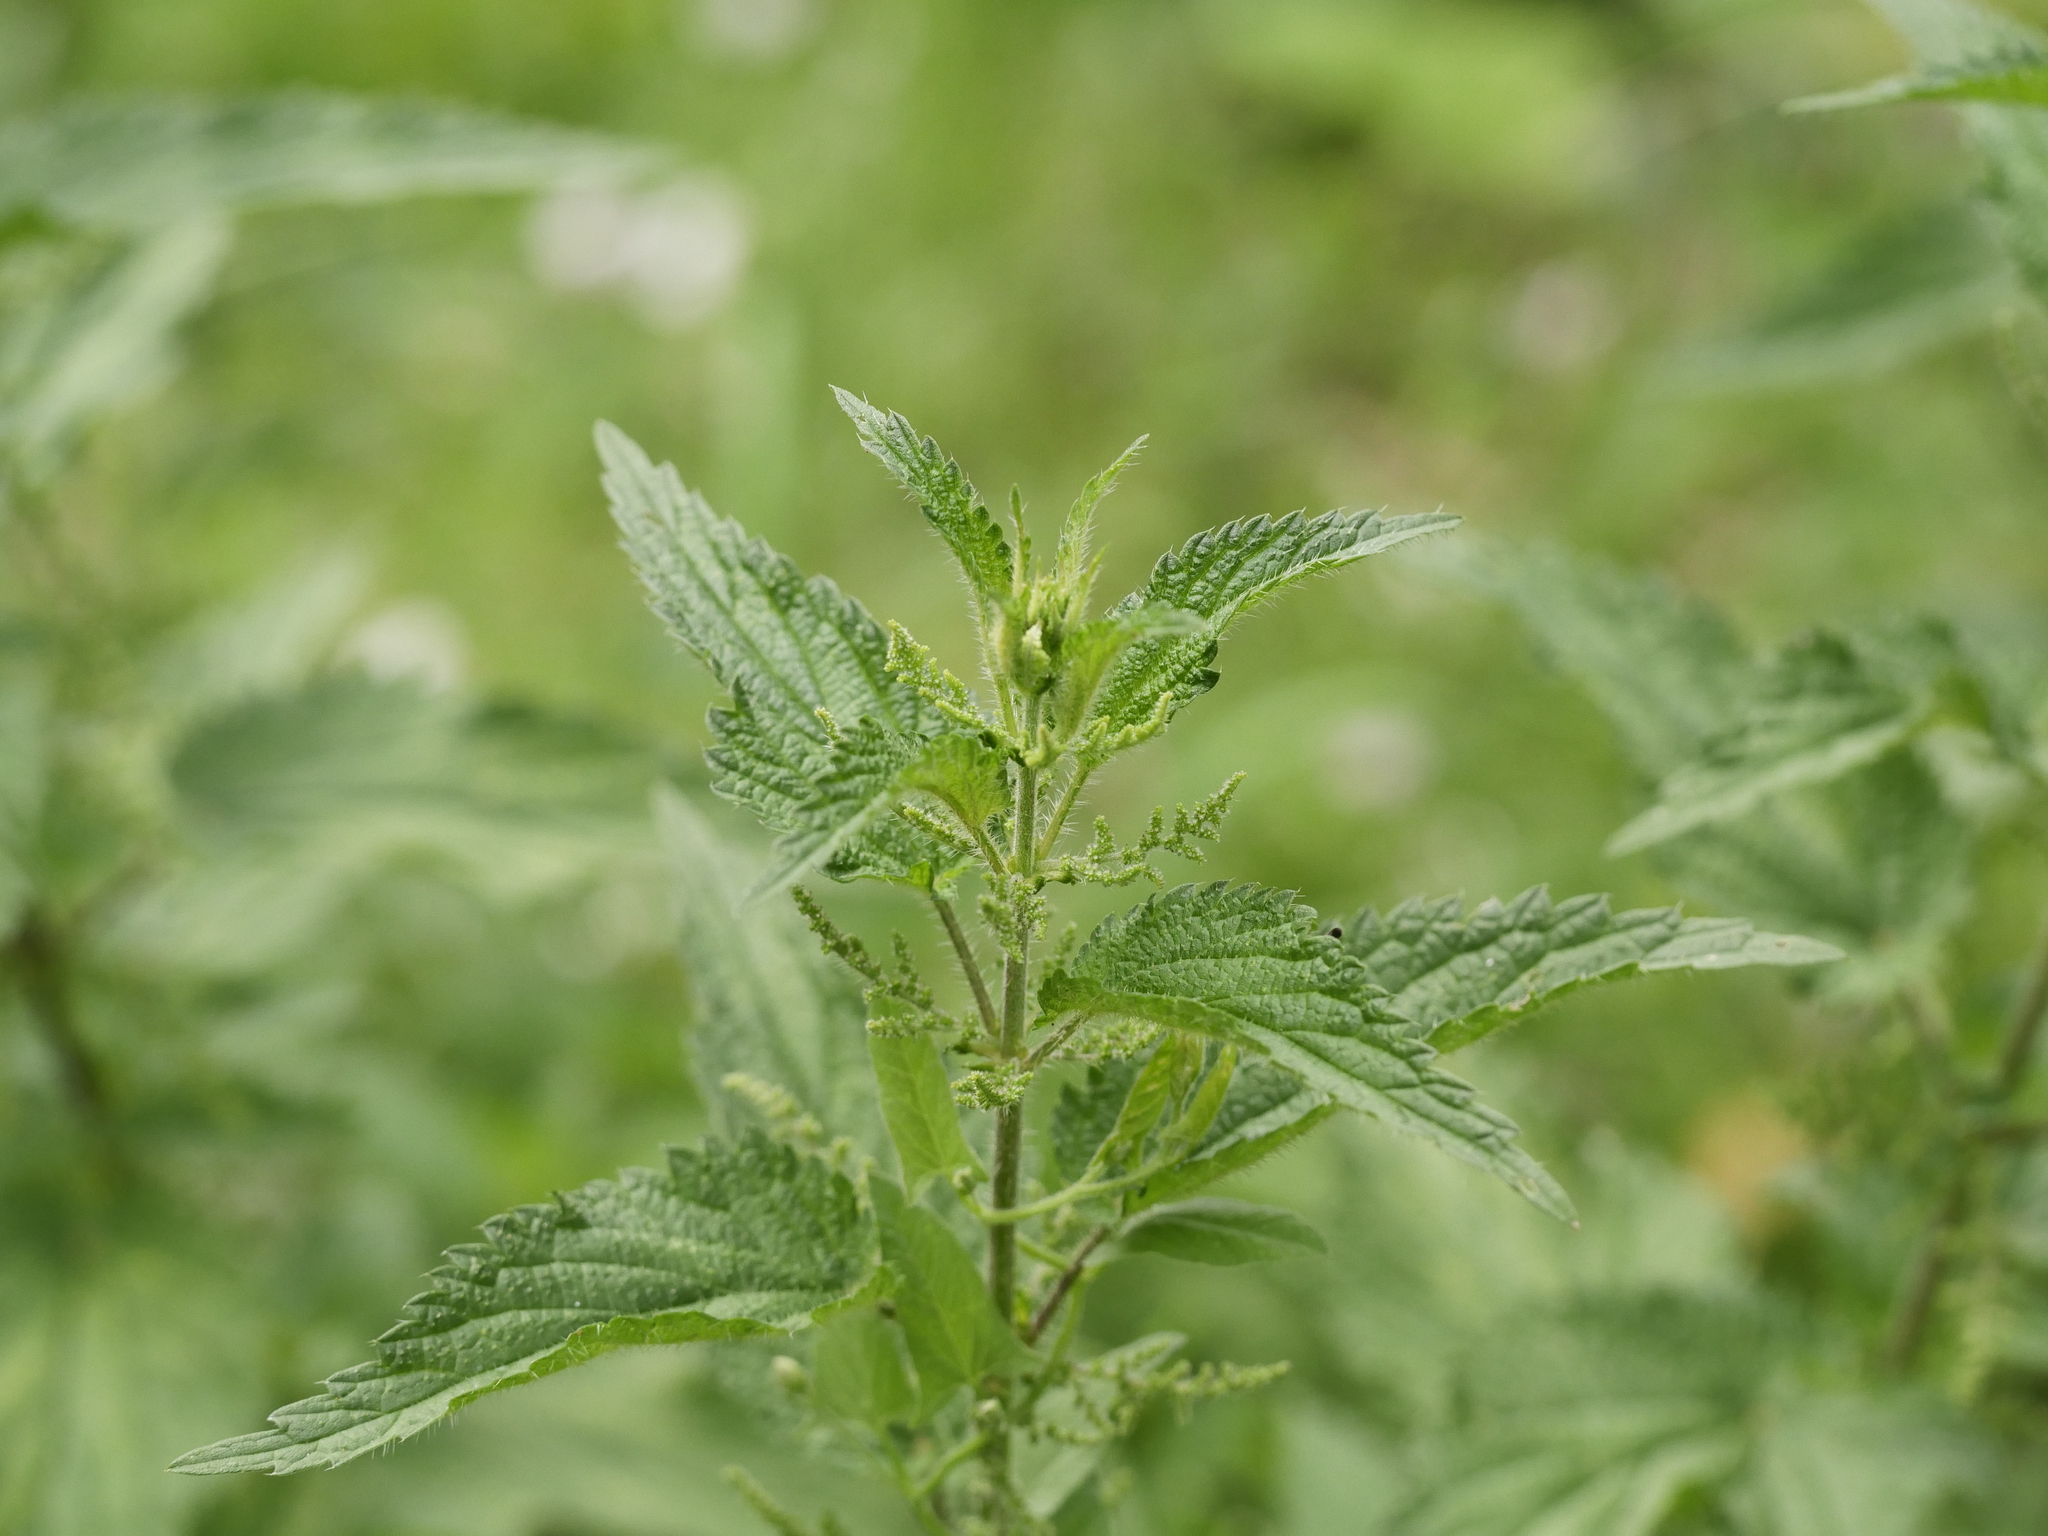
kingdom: Plantae
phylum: Tracheophyta
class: Magnoliopsida
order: Rosales
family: Urticaceae
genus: Urtica
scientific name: Urtica dioica
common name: Common nettle
